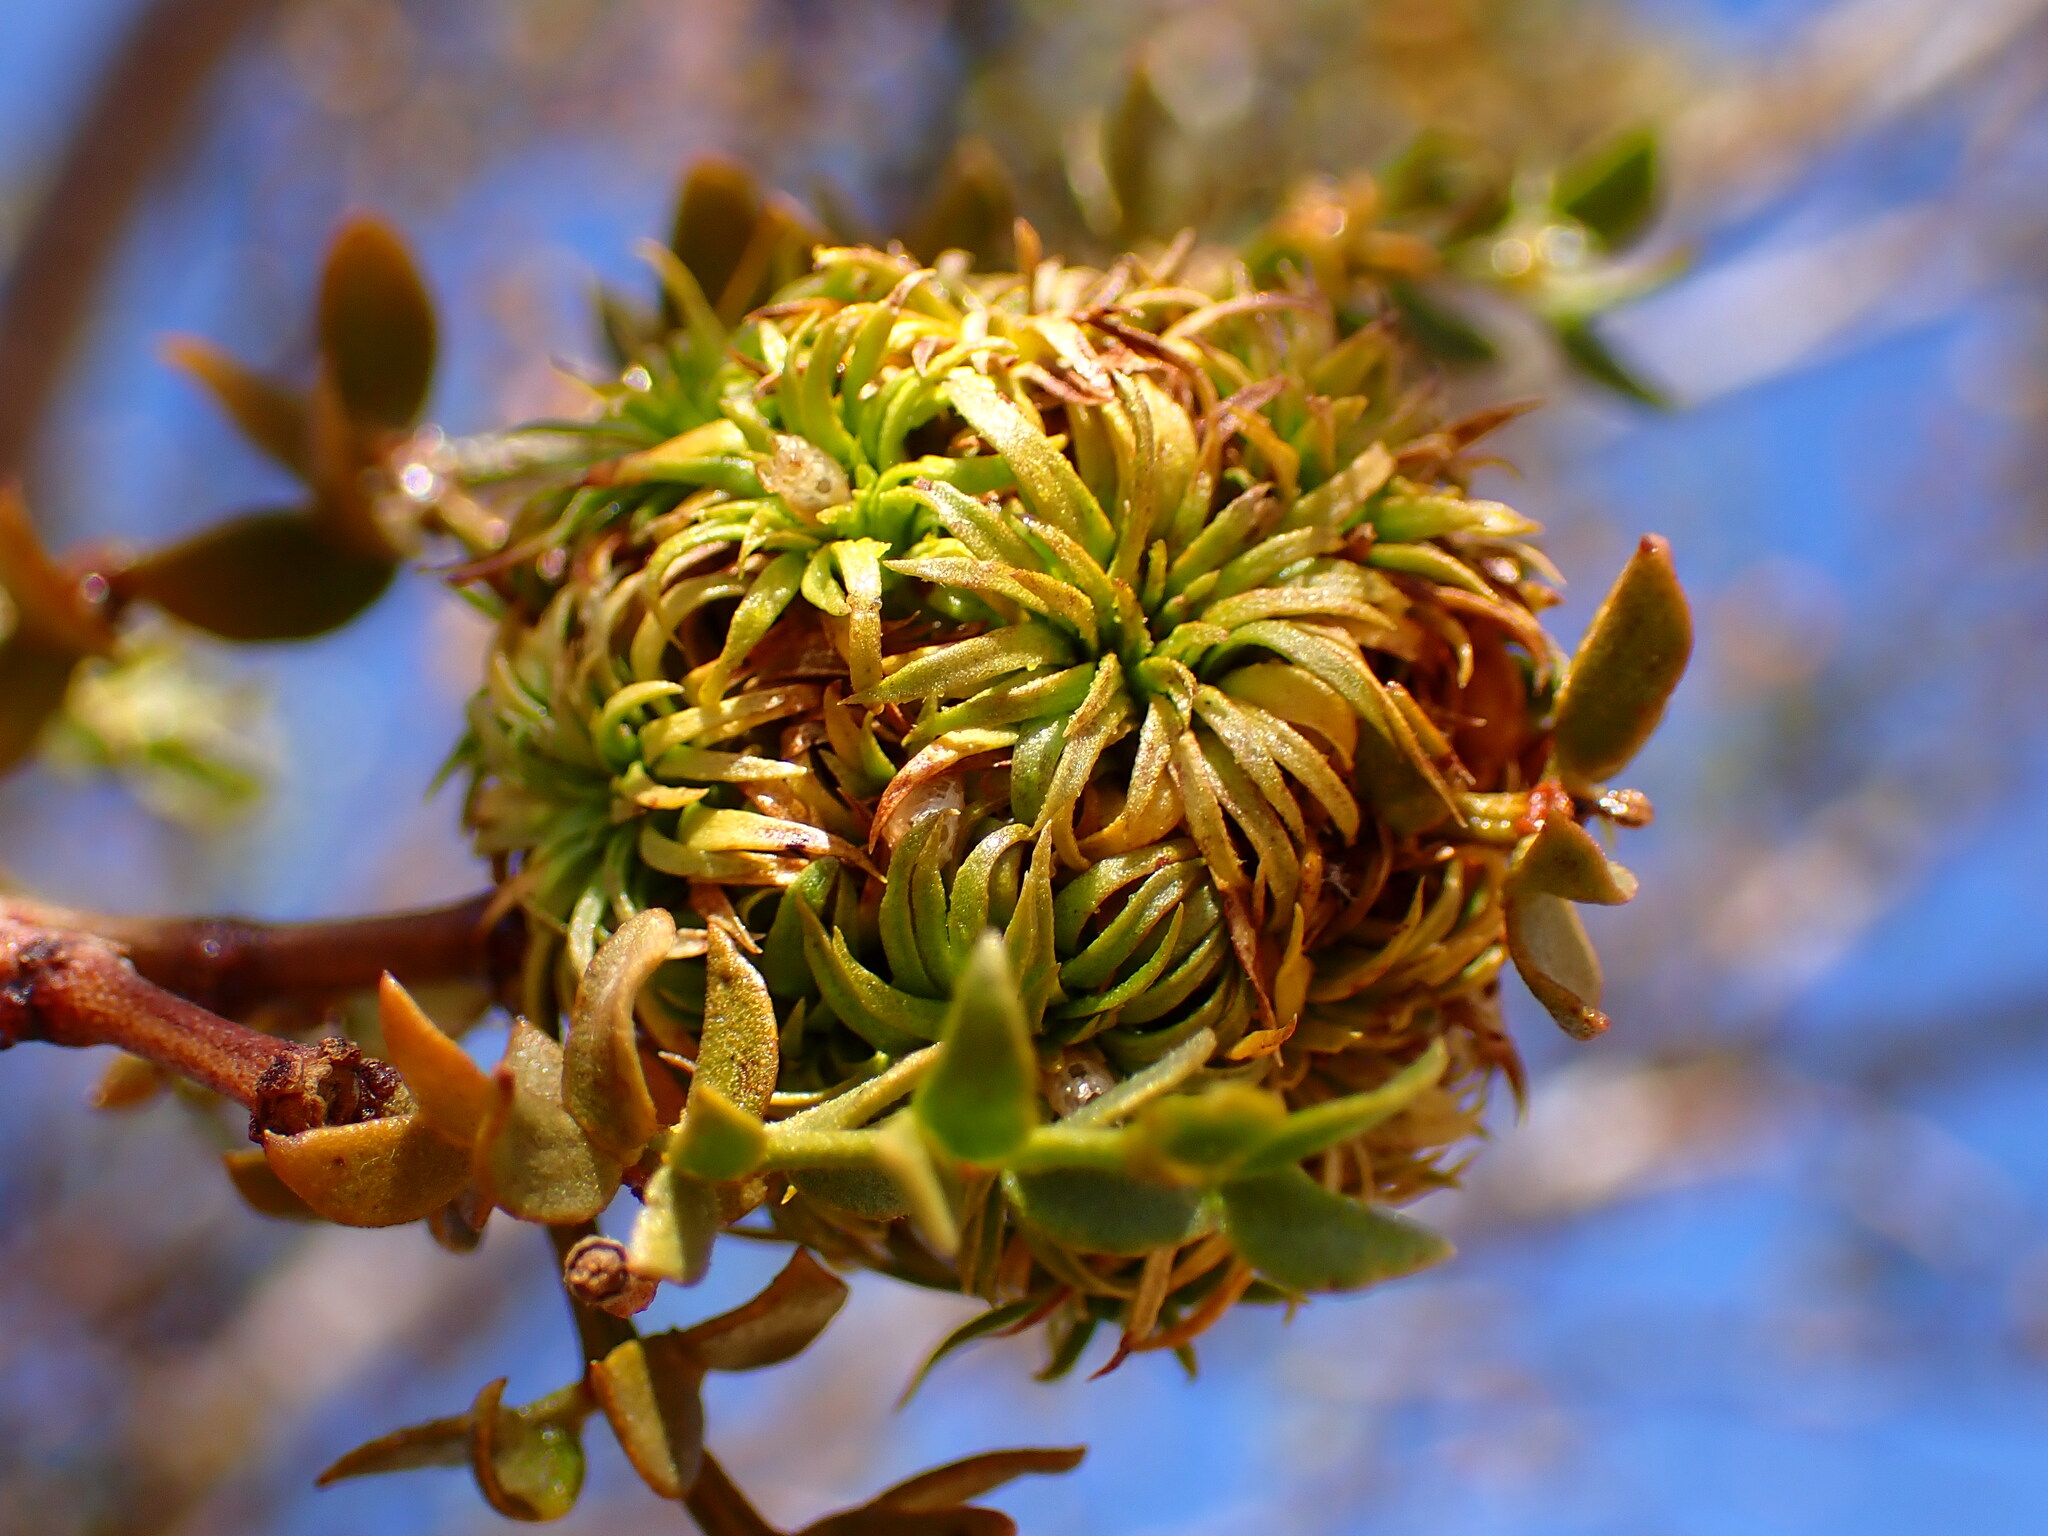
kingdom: Animalia
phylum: Arthropoda
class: Insecta
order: Diptera
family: Cecidomyiidae
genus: Asphondylia
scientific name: Asphondylia auripila
